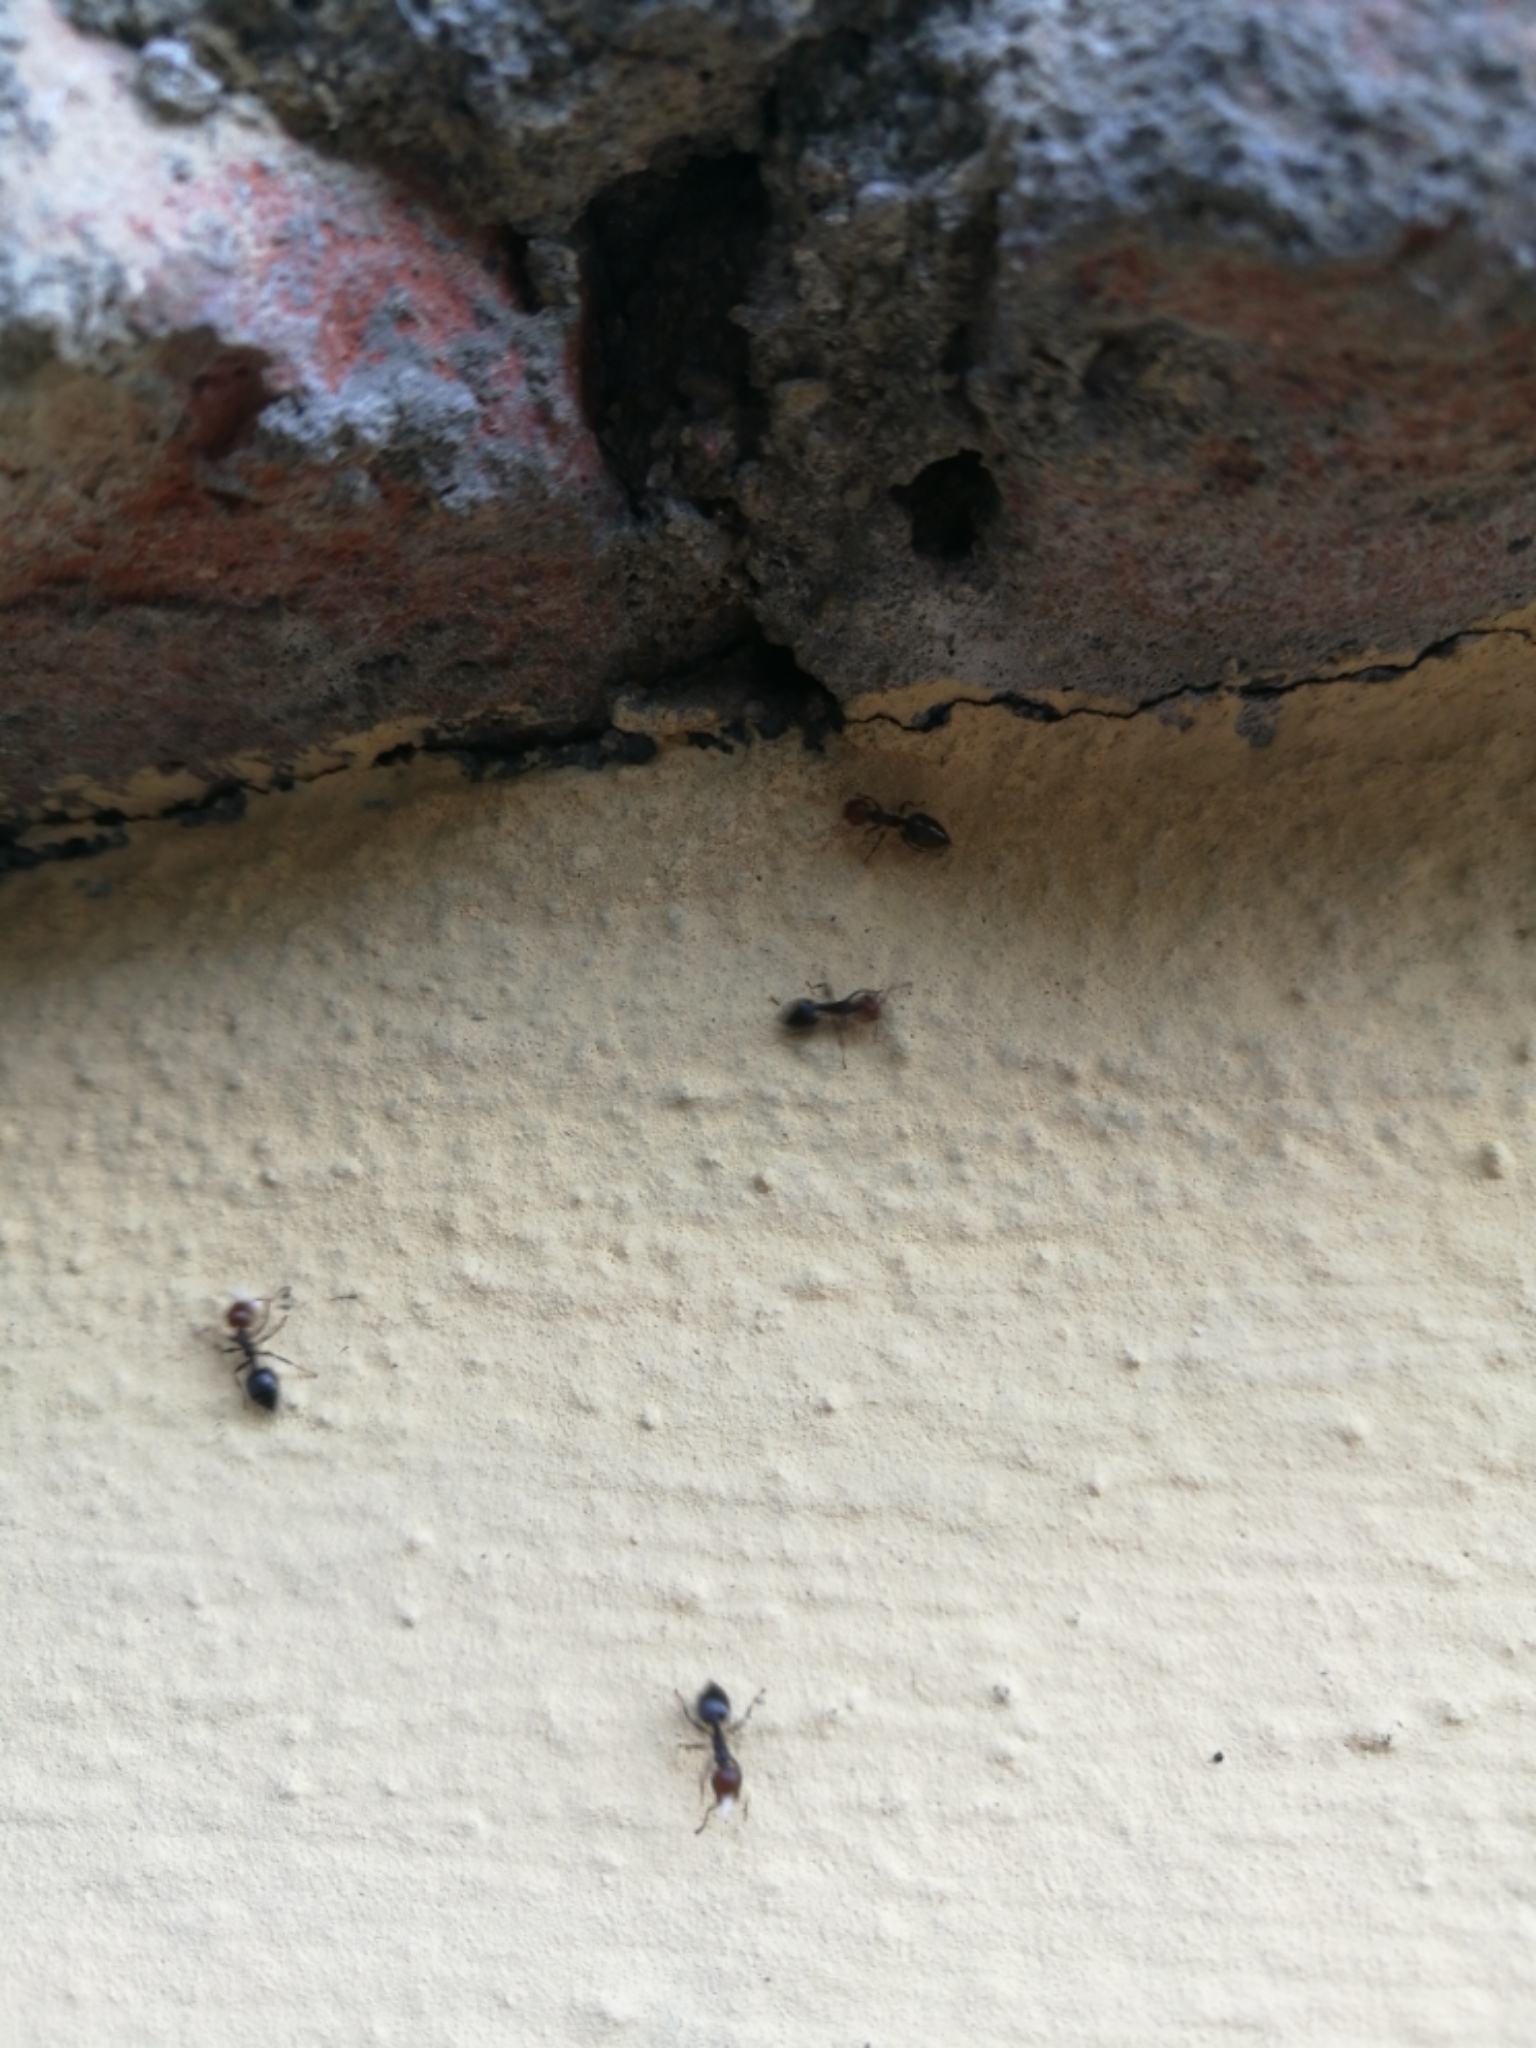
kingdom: Animalia
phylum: Arthropoda
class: Insecta
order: Hymenoptera
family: Formicidae
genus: Crematogaster
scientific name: Crematogaster scutellaris
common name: Fourmi du liège
